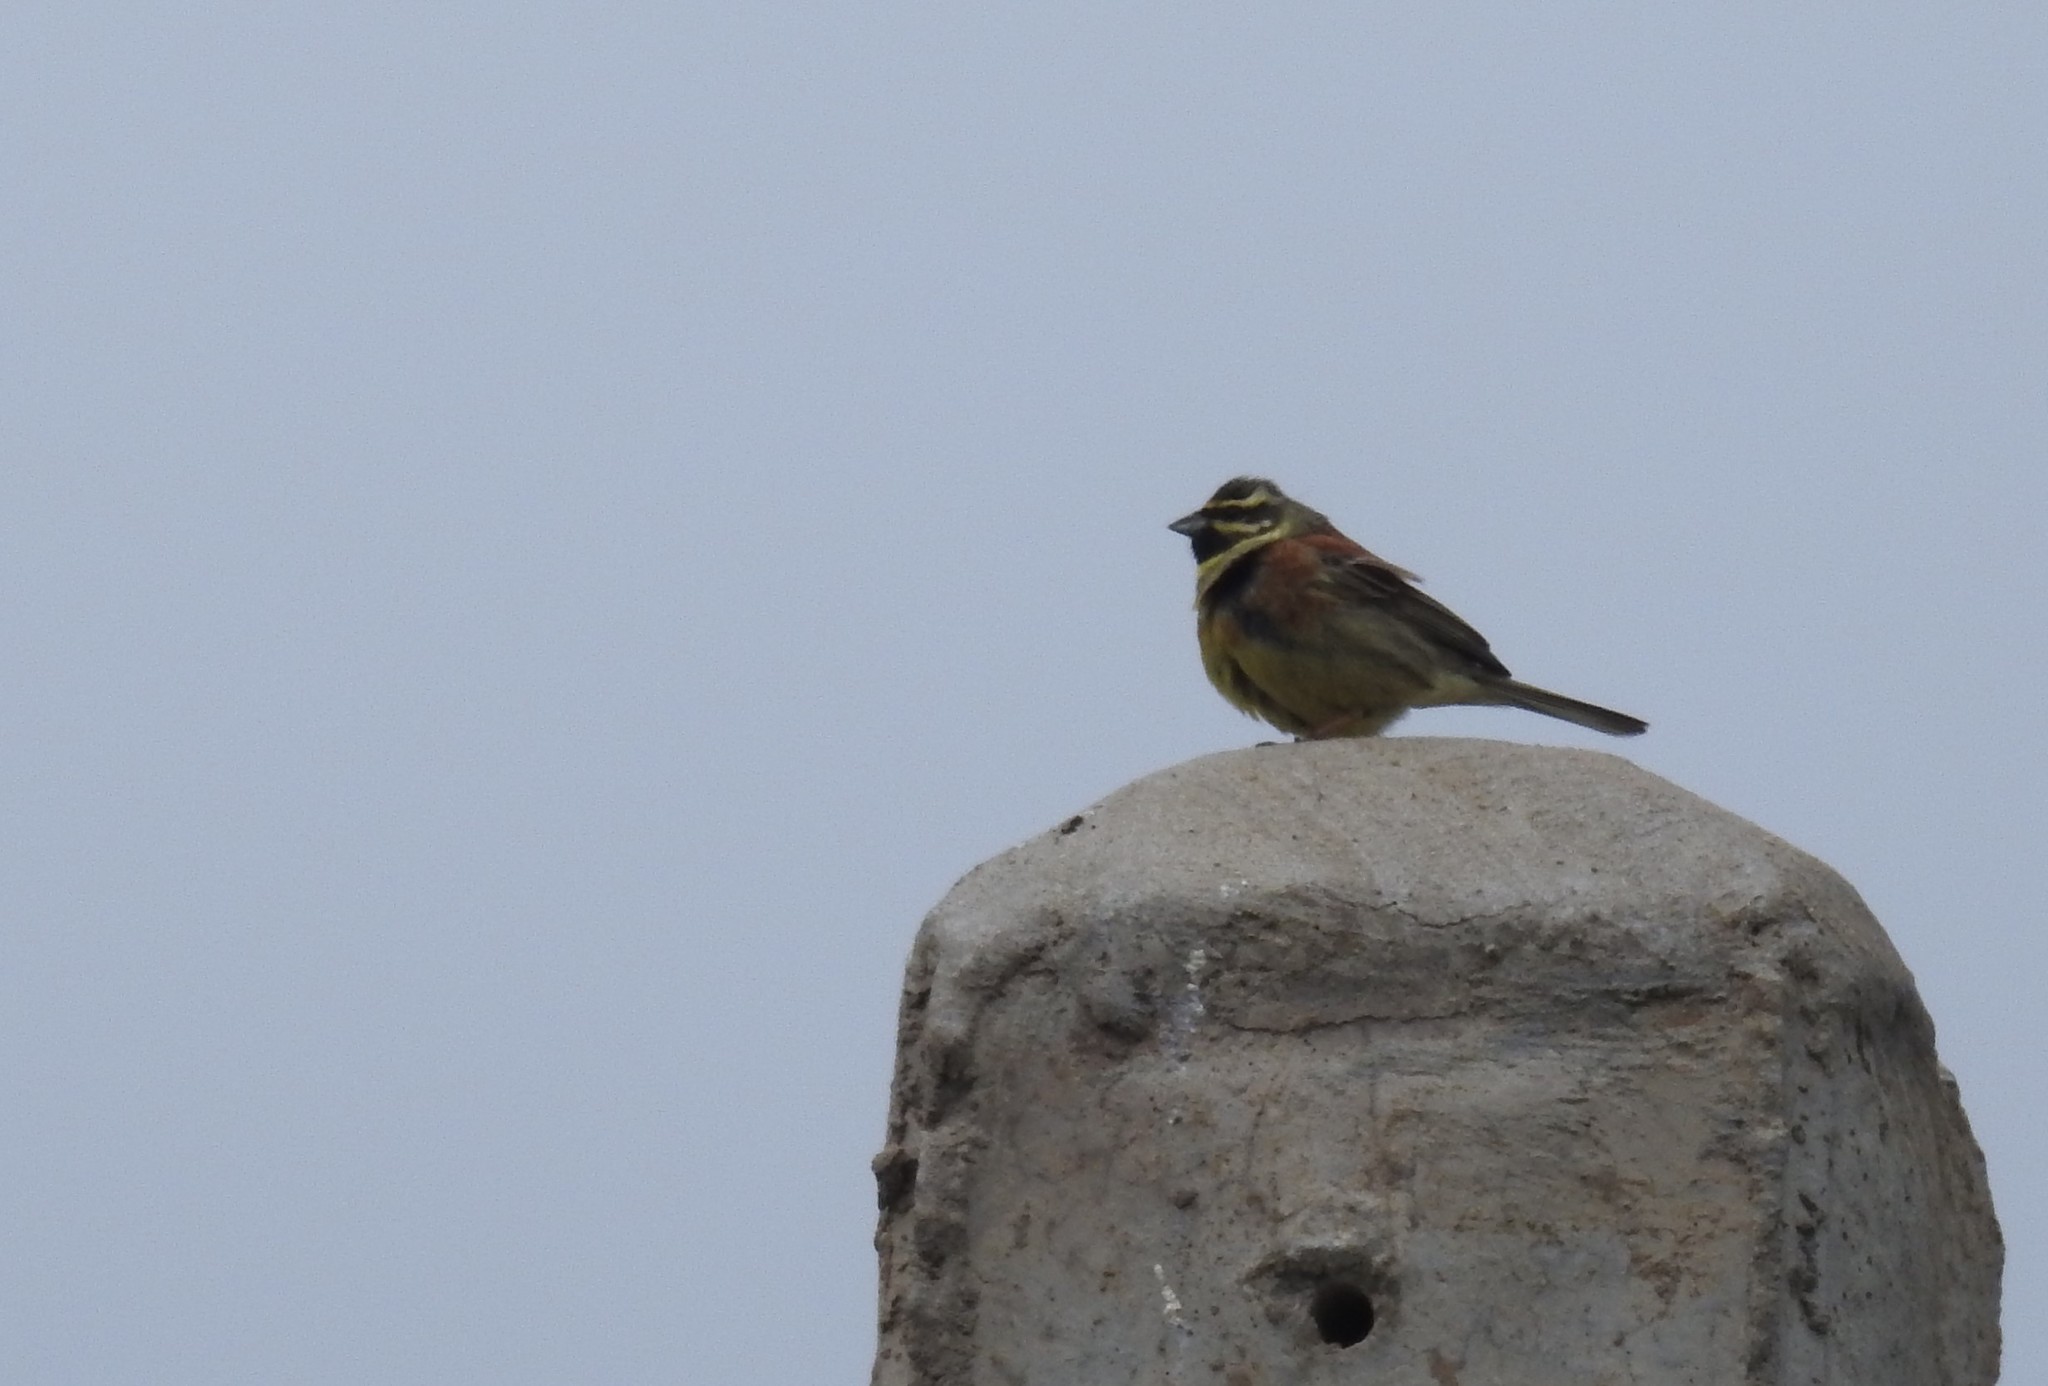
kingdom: Animalia
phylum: Chordata
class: Aves
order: Passeriformes
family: Emberizidae
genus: Emberiza
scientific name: Emberiza cirlus
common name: Cirl bunting
